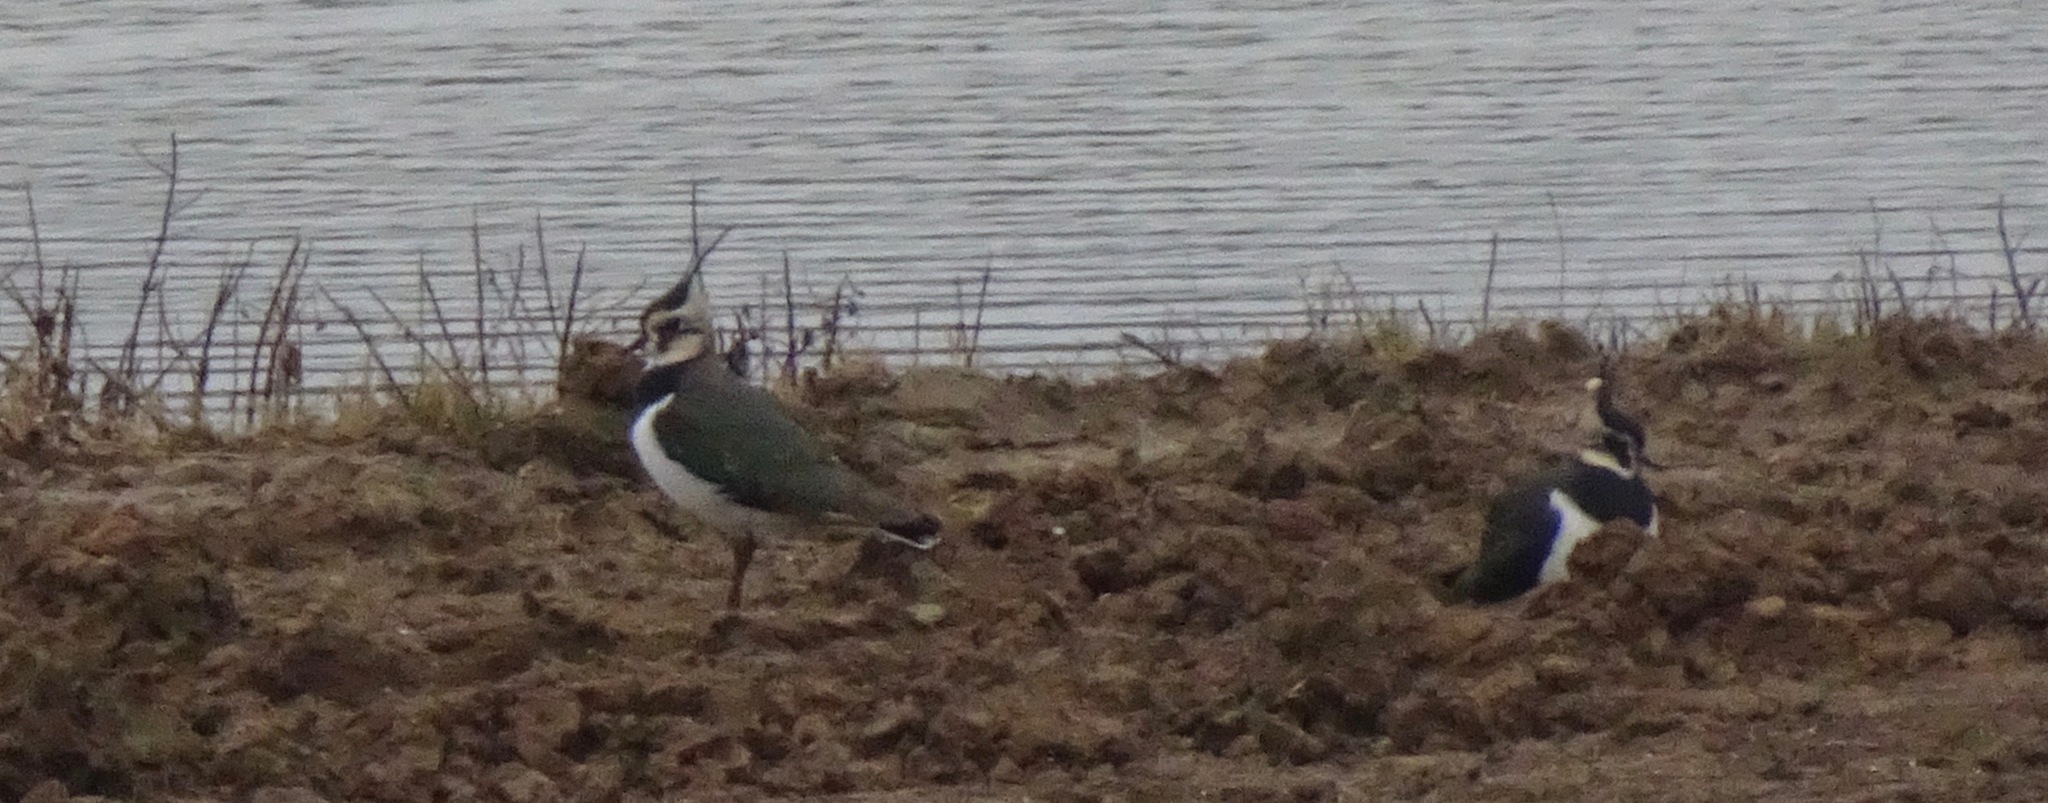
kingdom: Animalia
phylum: Chordata
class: Aves
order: Charadriiformes
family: Charadriidae
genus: Vanellus
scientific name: Vanellus vanellus
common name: Northern lapwing
